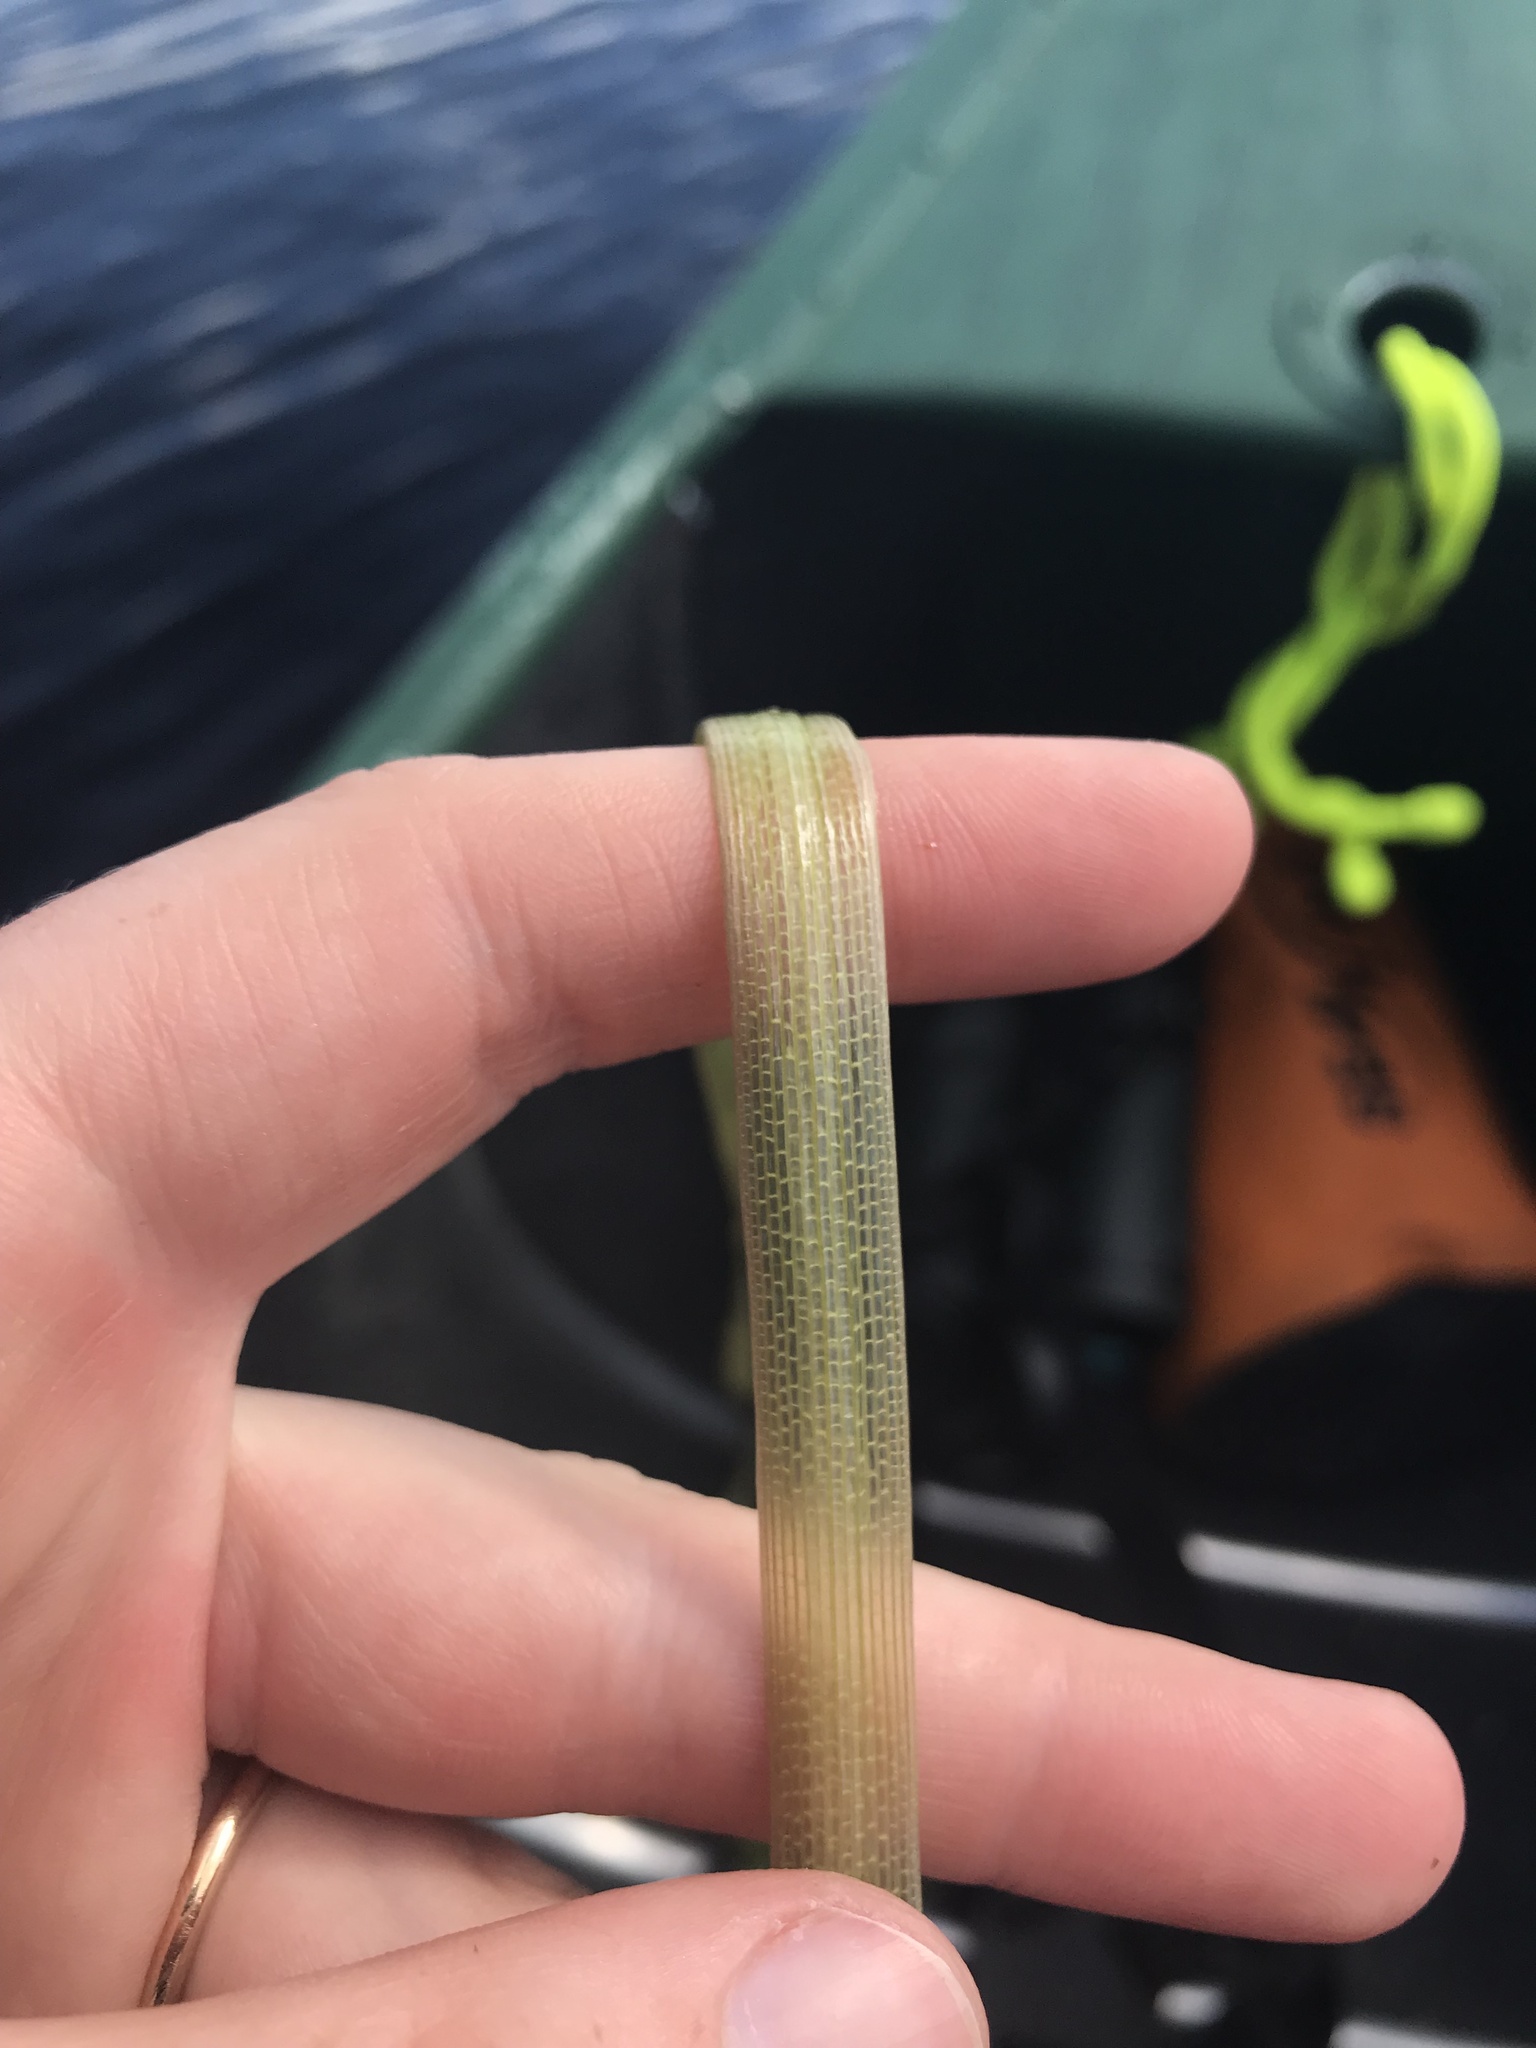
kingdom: Plantae
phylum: Tracheophyta
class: Liliopsida
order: Alismatales
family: Hydrocharitaceae
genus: Vallisneria
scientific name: Vallisneria americana
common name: American eelgrass
